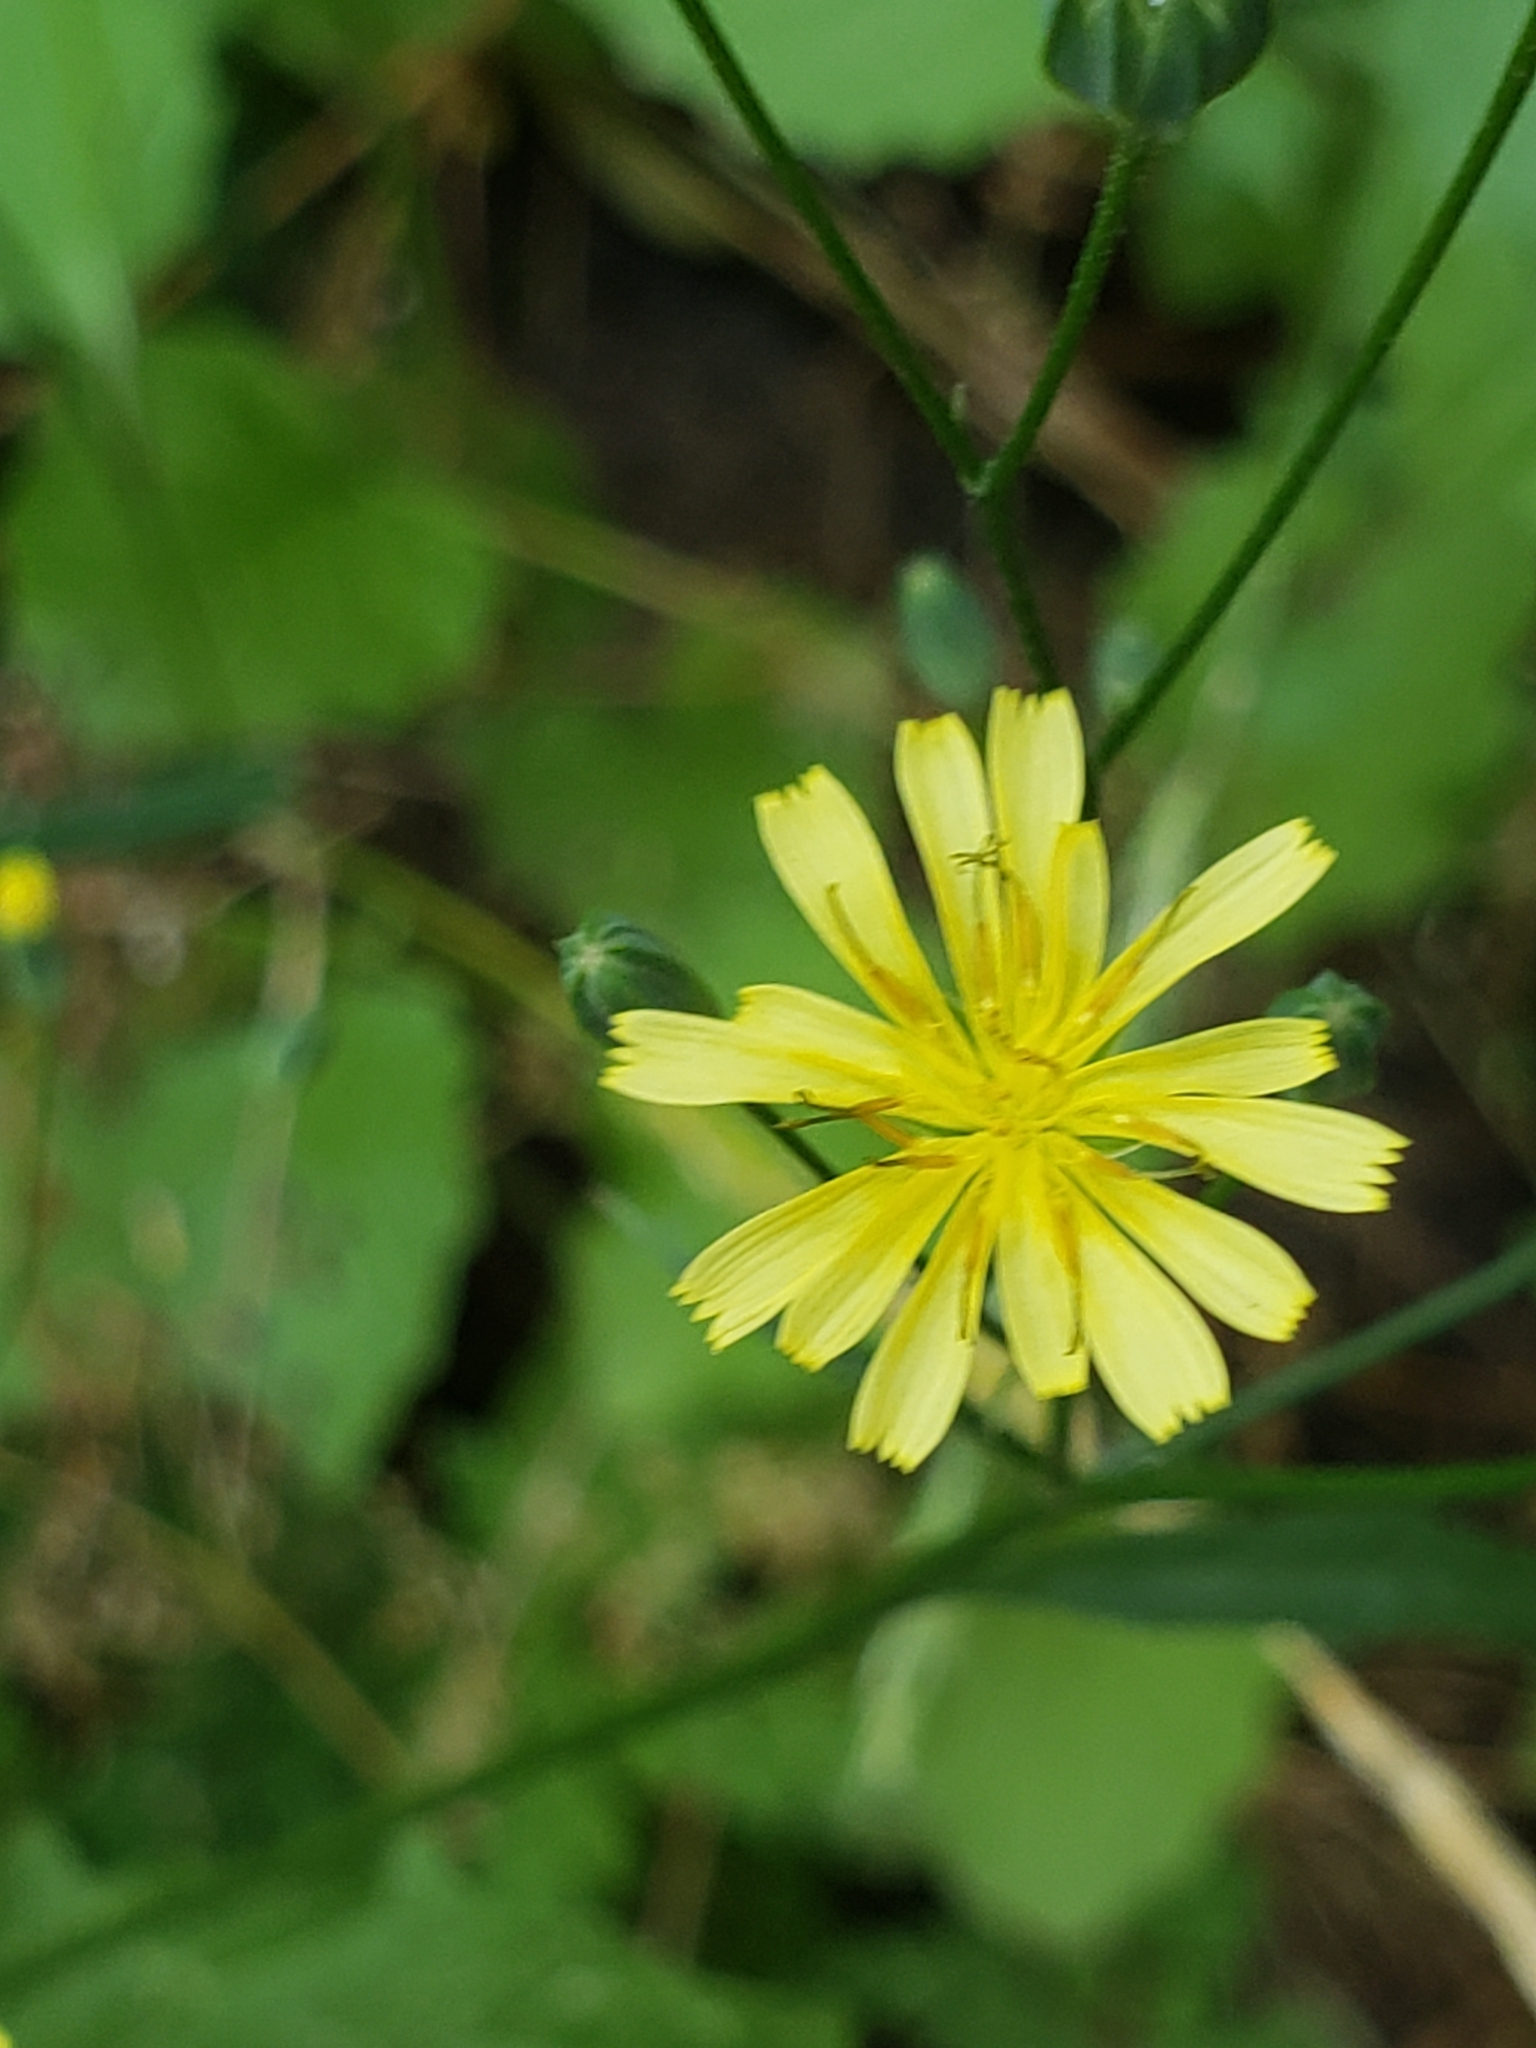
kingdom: Plantae
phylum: Tracheophyta
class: Magnoliopsida
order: Asterales
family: Asteraceae
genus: Lapsana
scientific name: Lapsana communis
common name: Nipplewort
